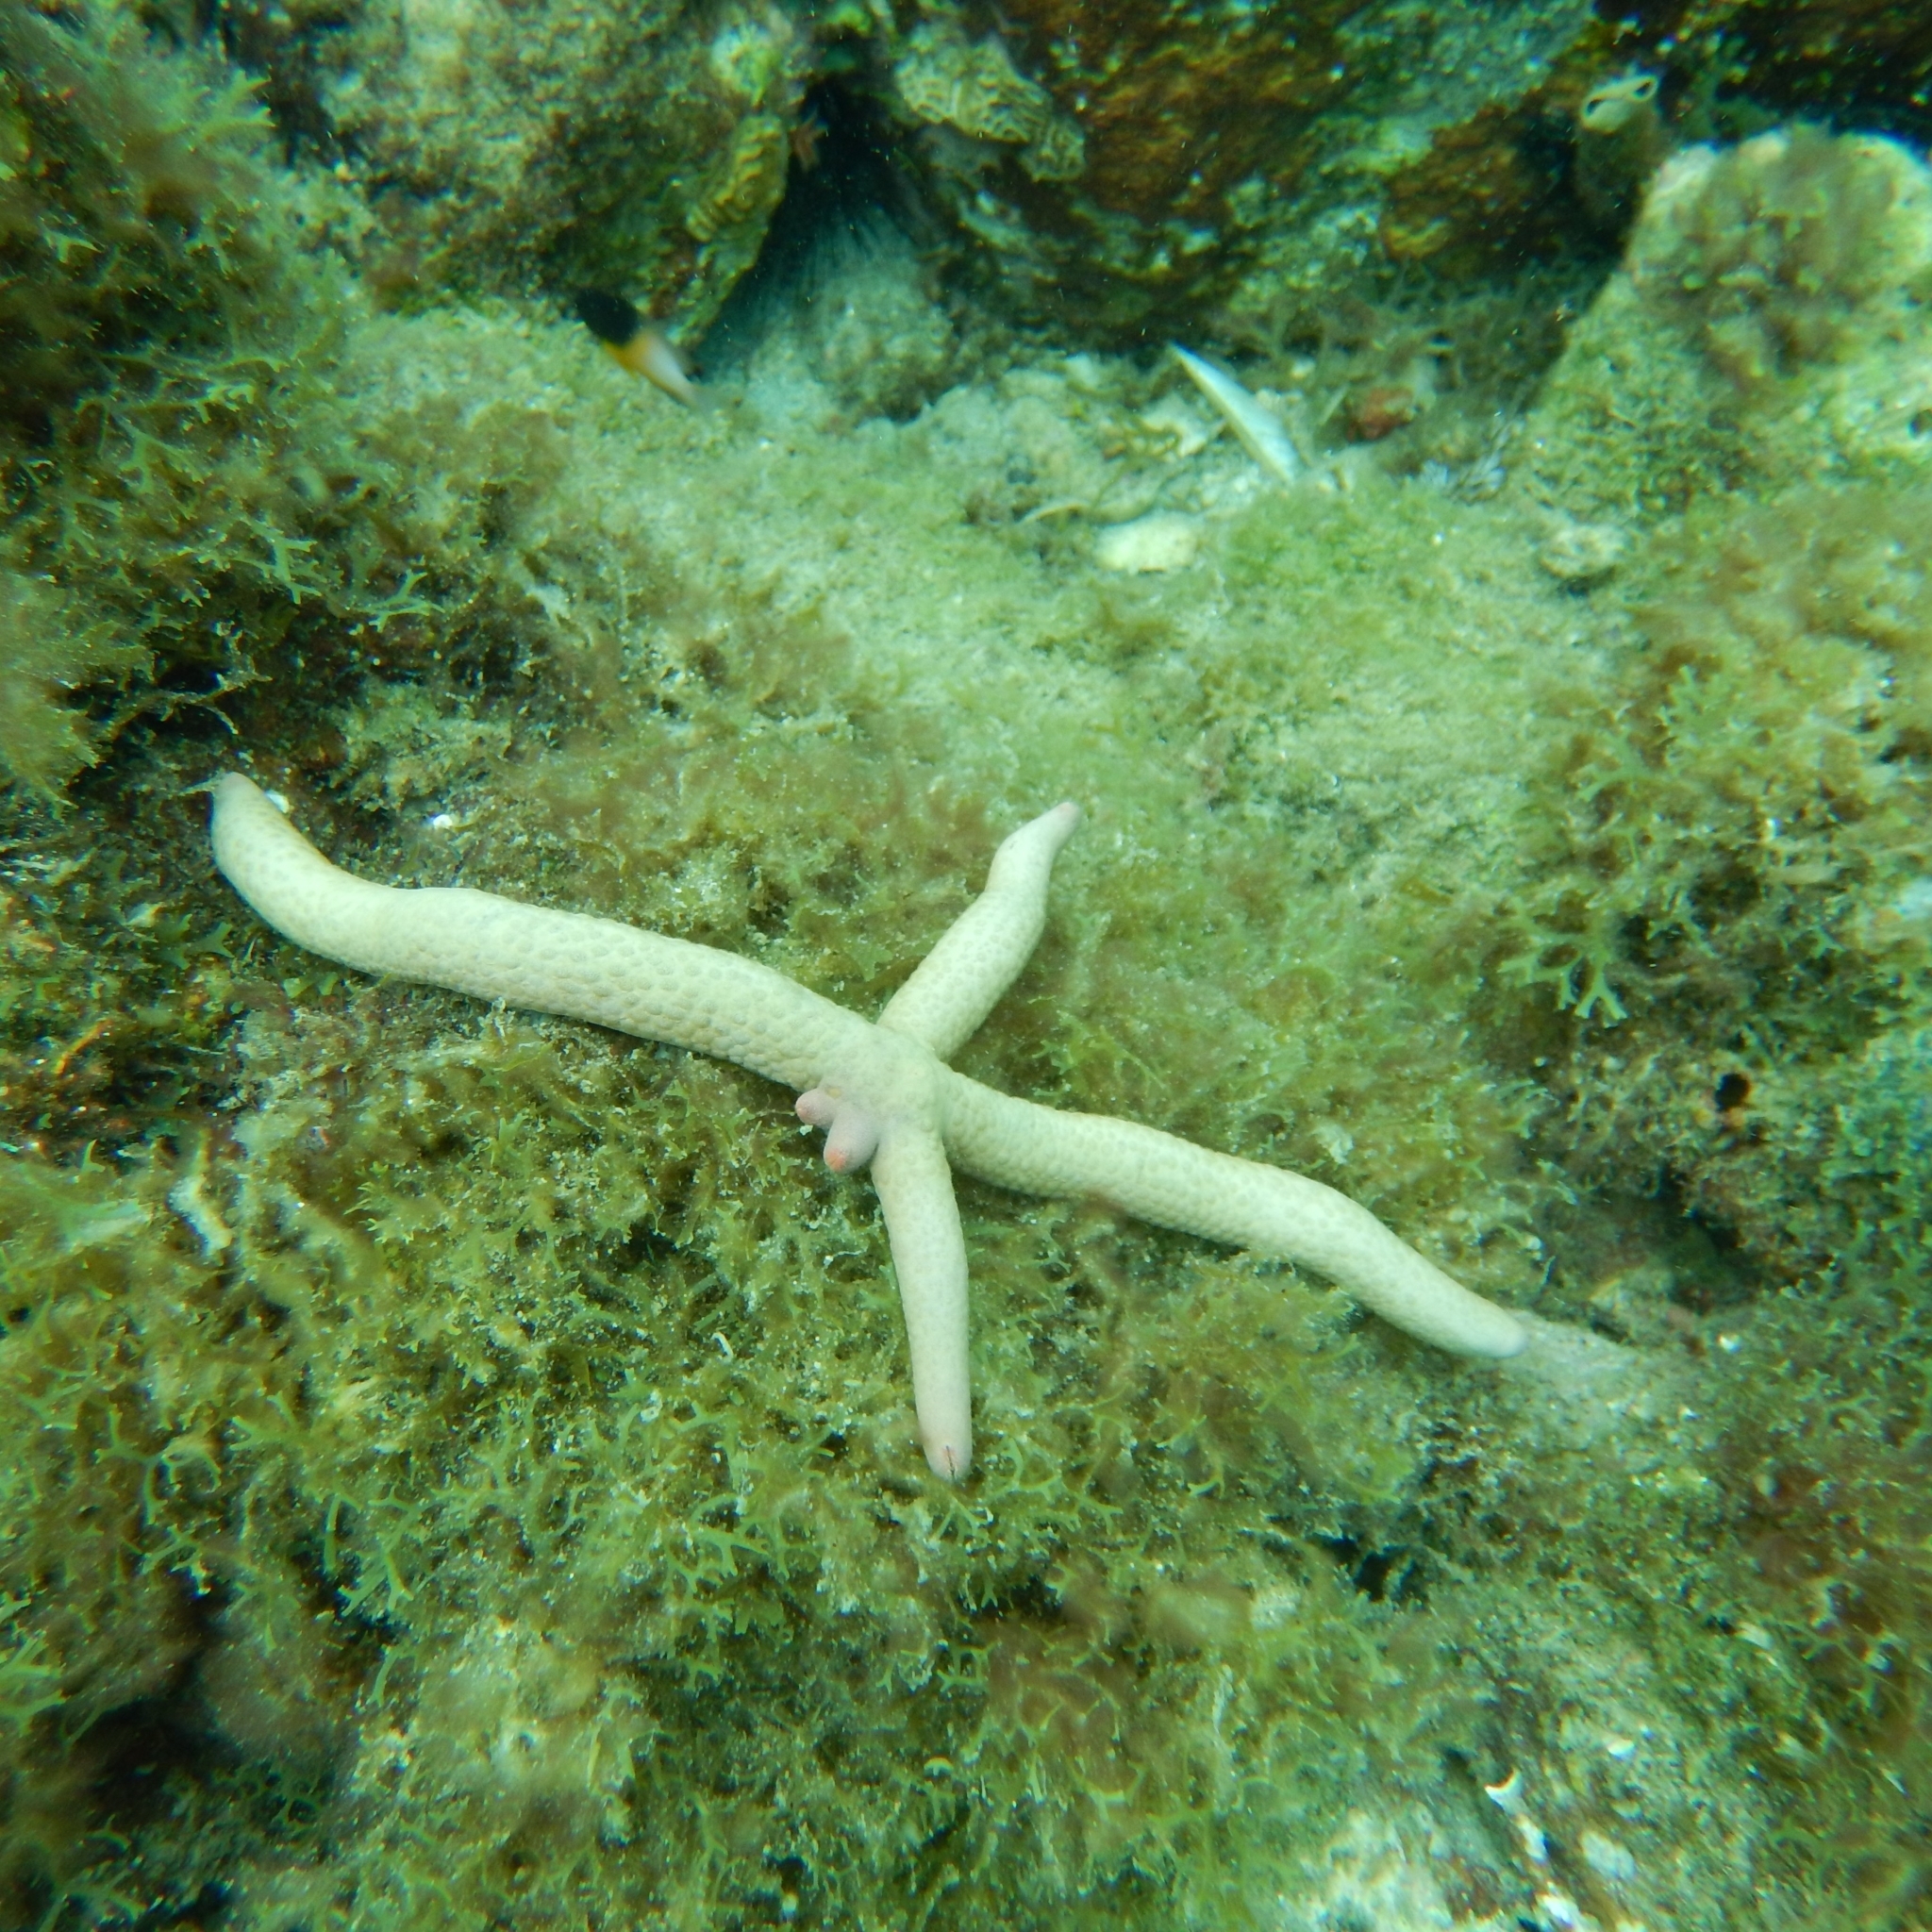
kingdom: Animalia
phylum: Echinodermata
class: Asteroidea
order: Valvatida
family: Ophidiasteridae
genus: Linckia
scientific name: Linckia guildingi
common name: Common comet star
